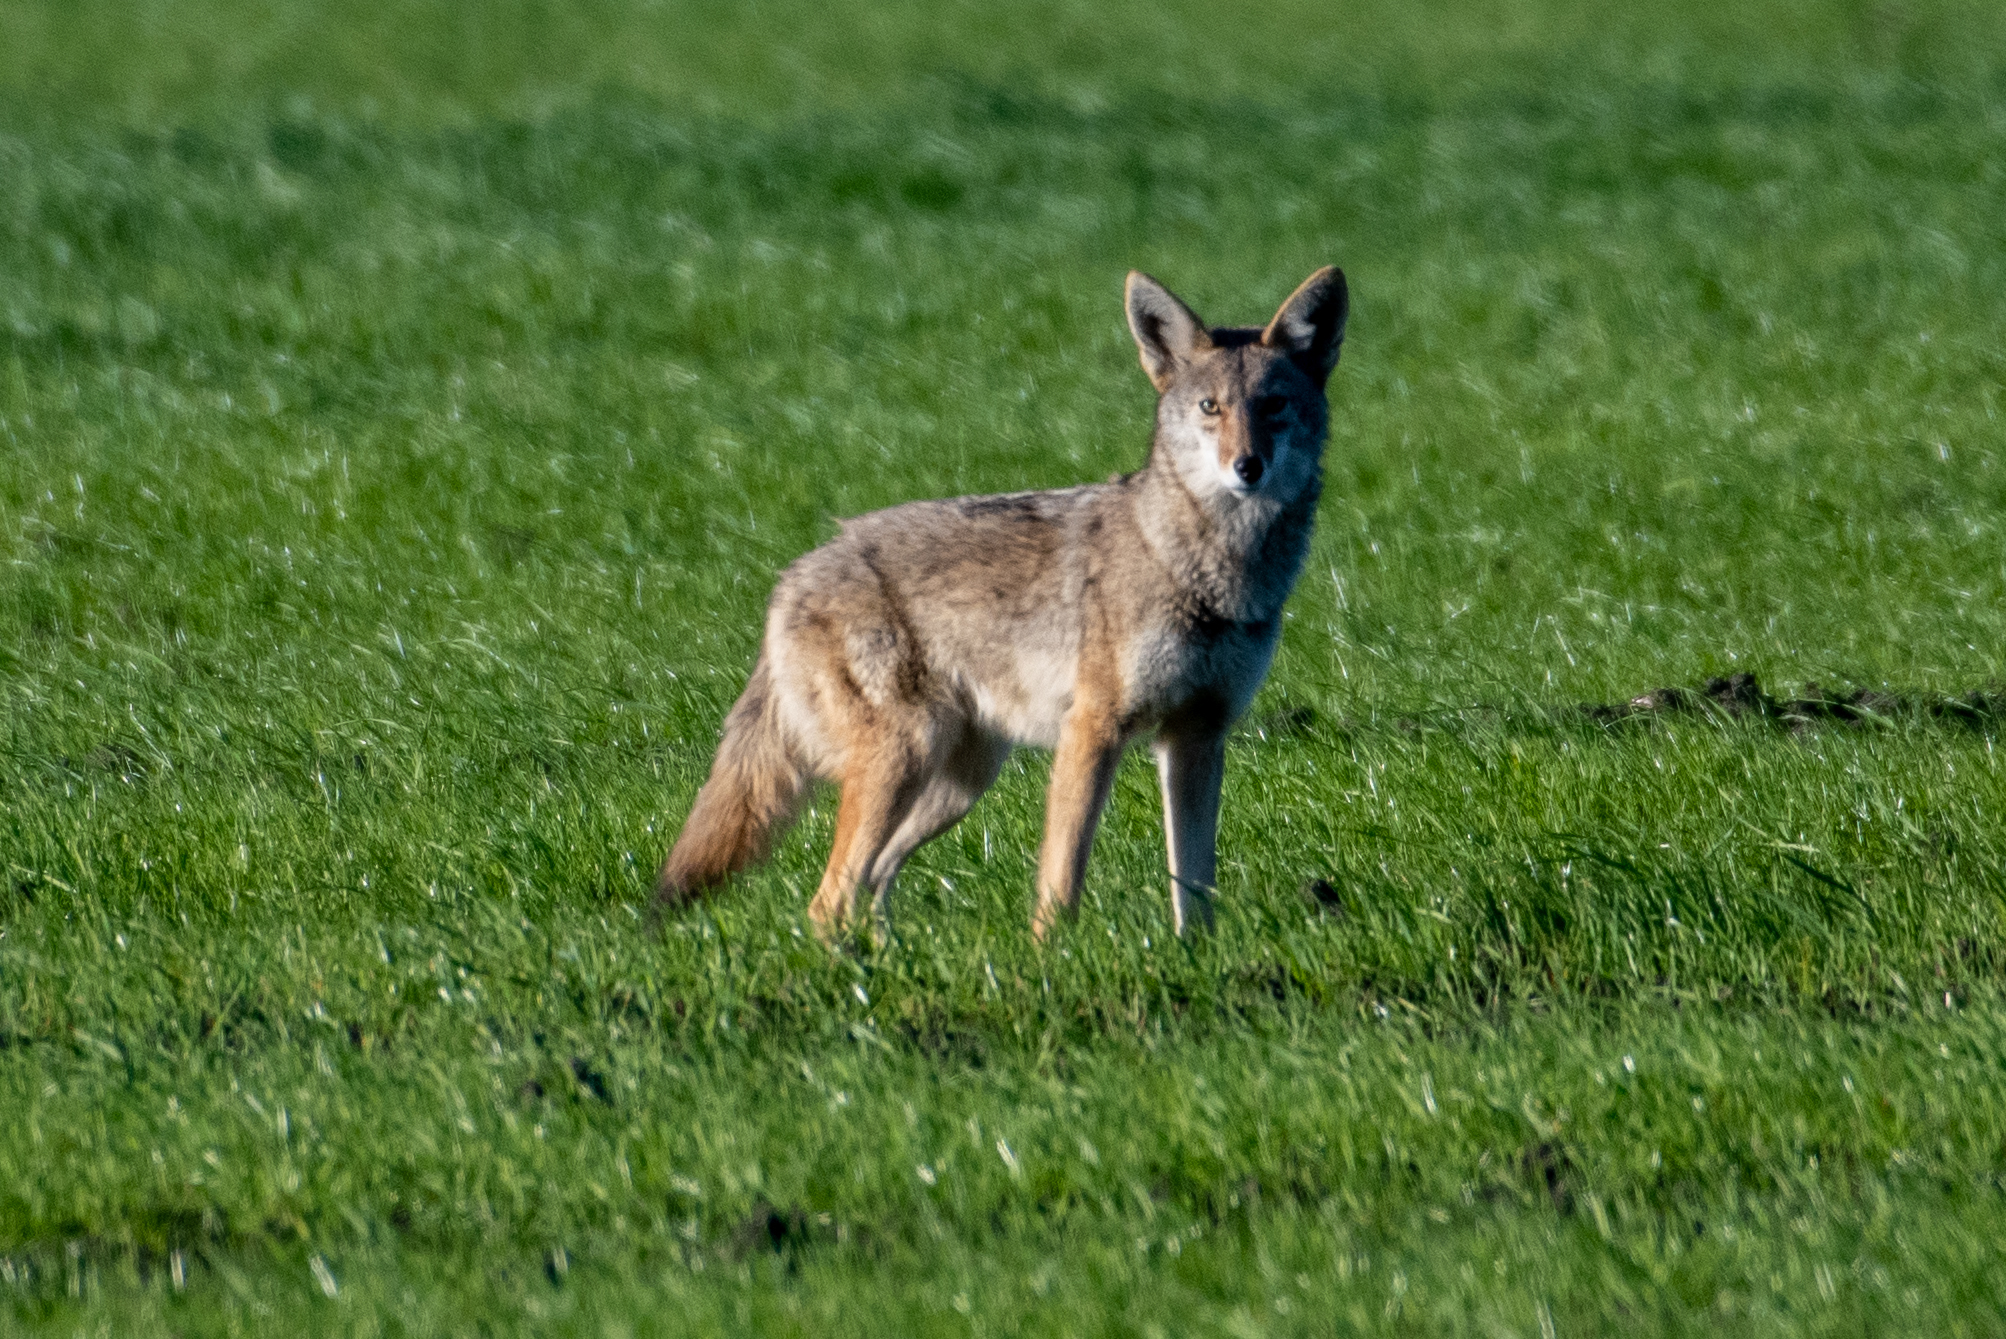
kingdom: Animalia
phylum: Chordata
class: Mammalia
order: Carnivora
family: Canidae
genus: Canis
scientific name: Canis latrans
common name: Coyote
